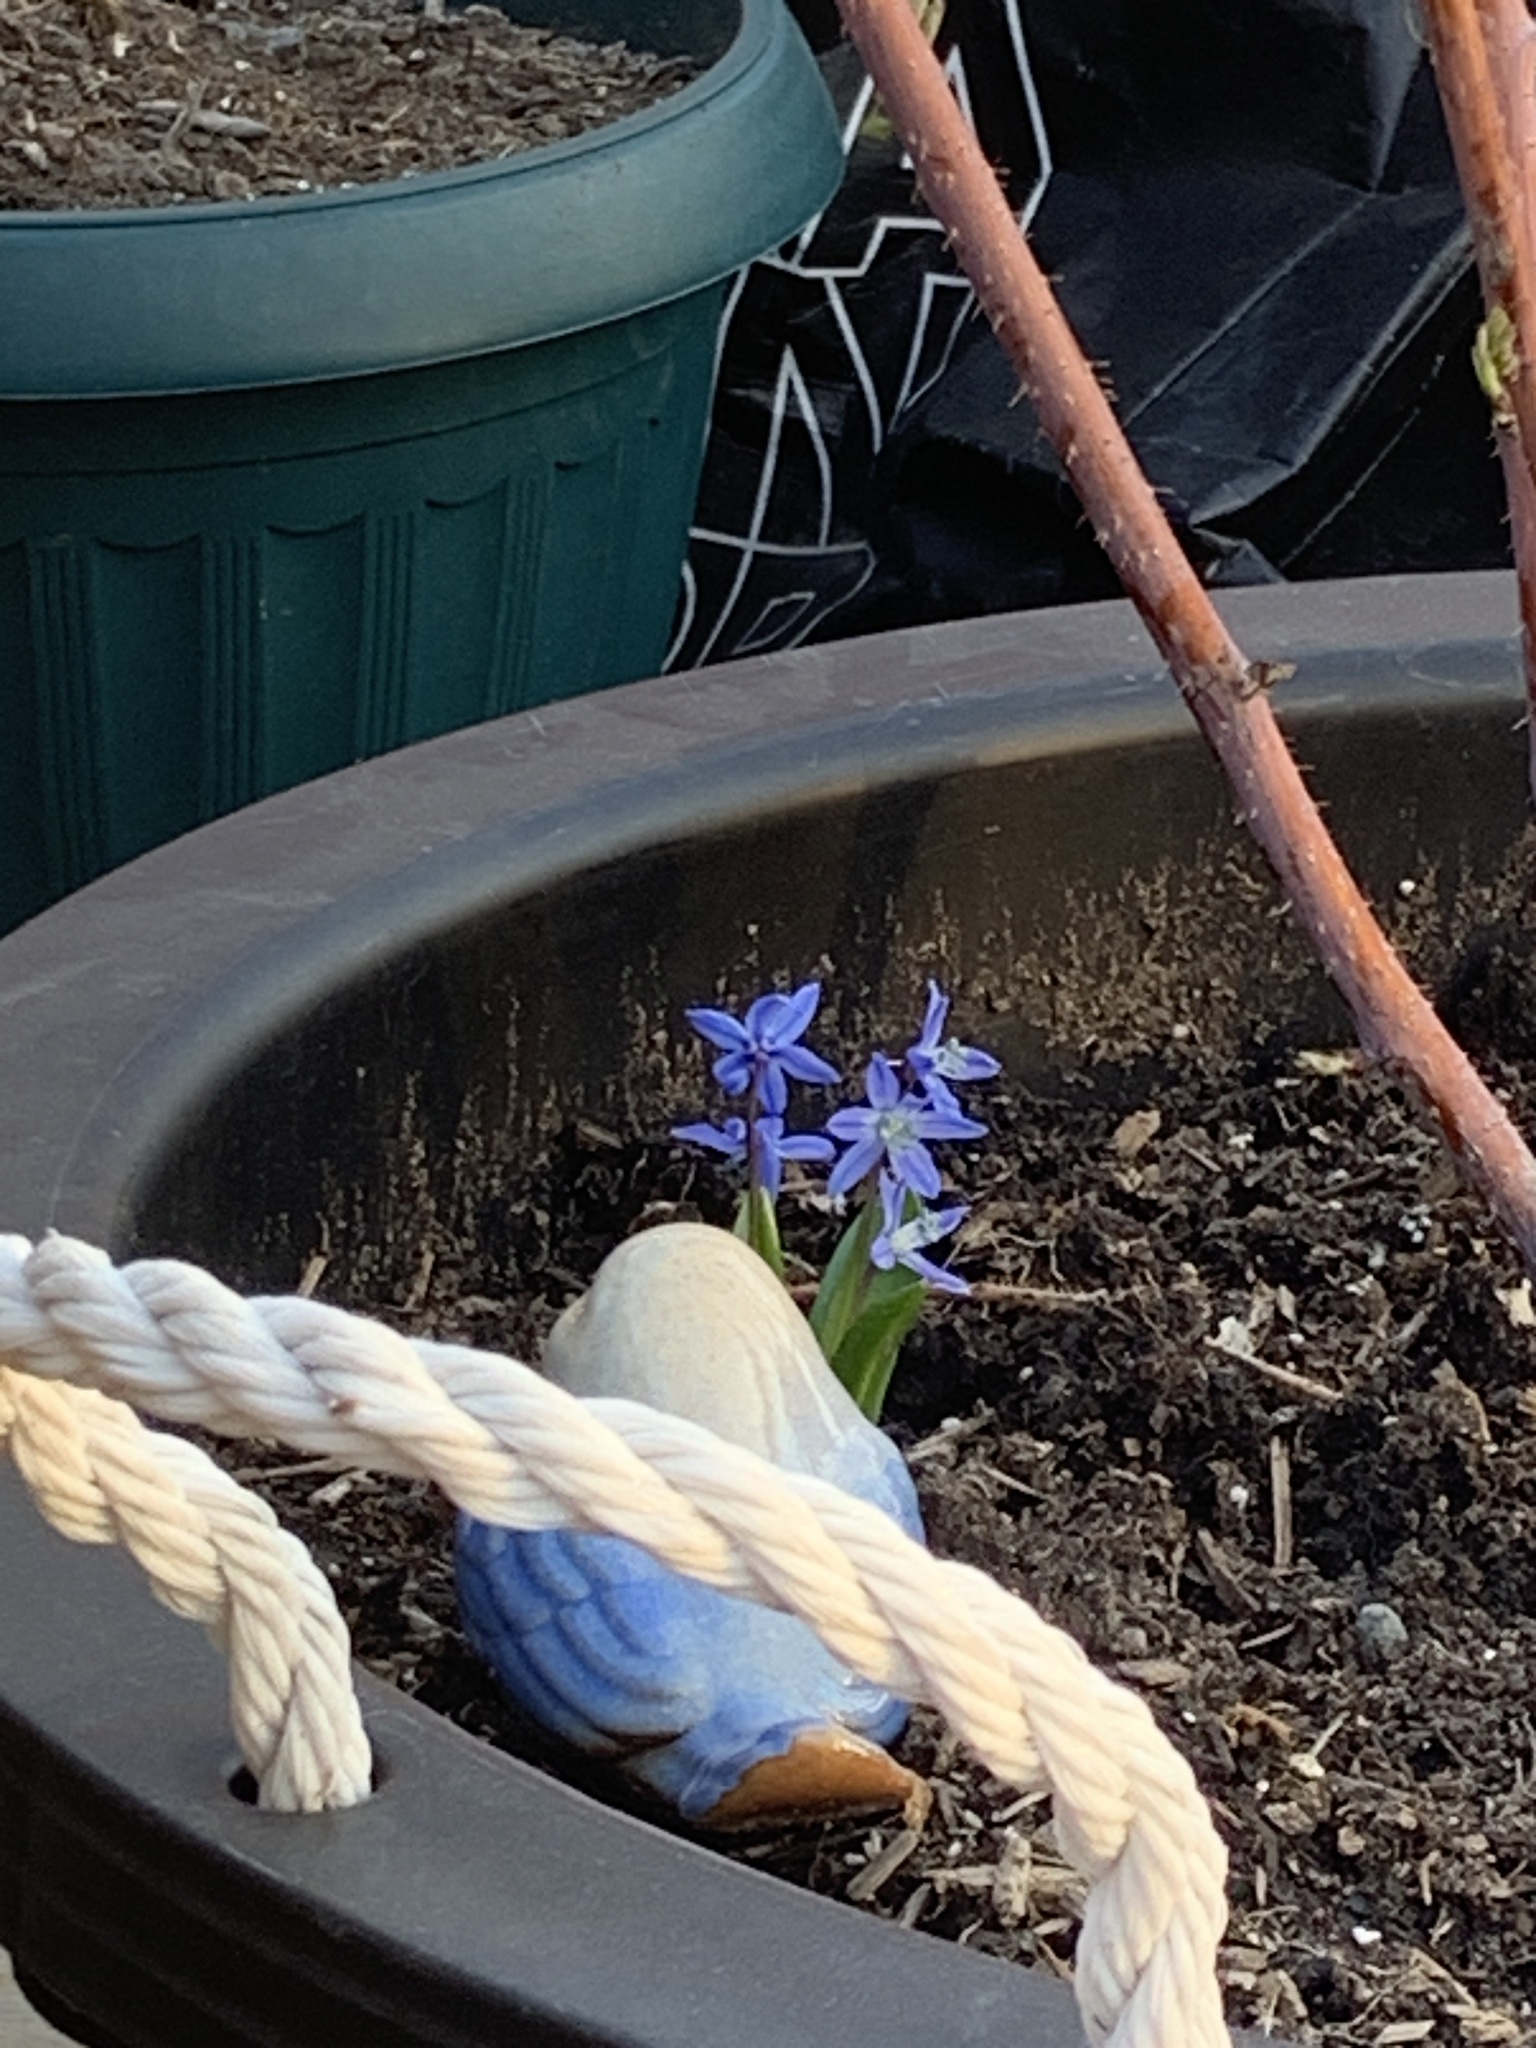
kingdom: Plantae
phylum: Tracheophyta
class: Liliopsida
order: Asparagales
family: Asparagaceae
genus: Scilla
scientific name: Scilla siberica
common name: Siberian squill
